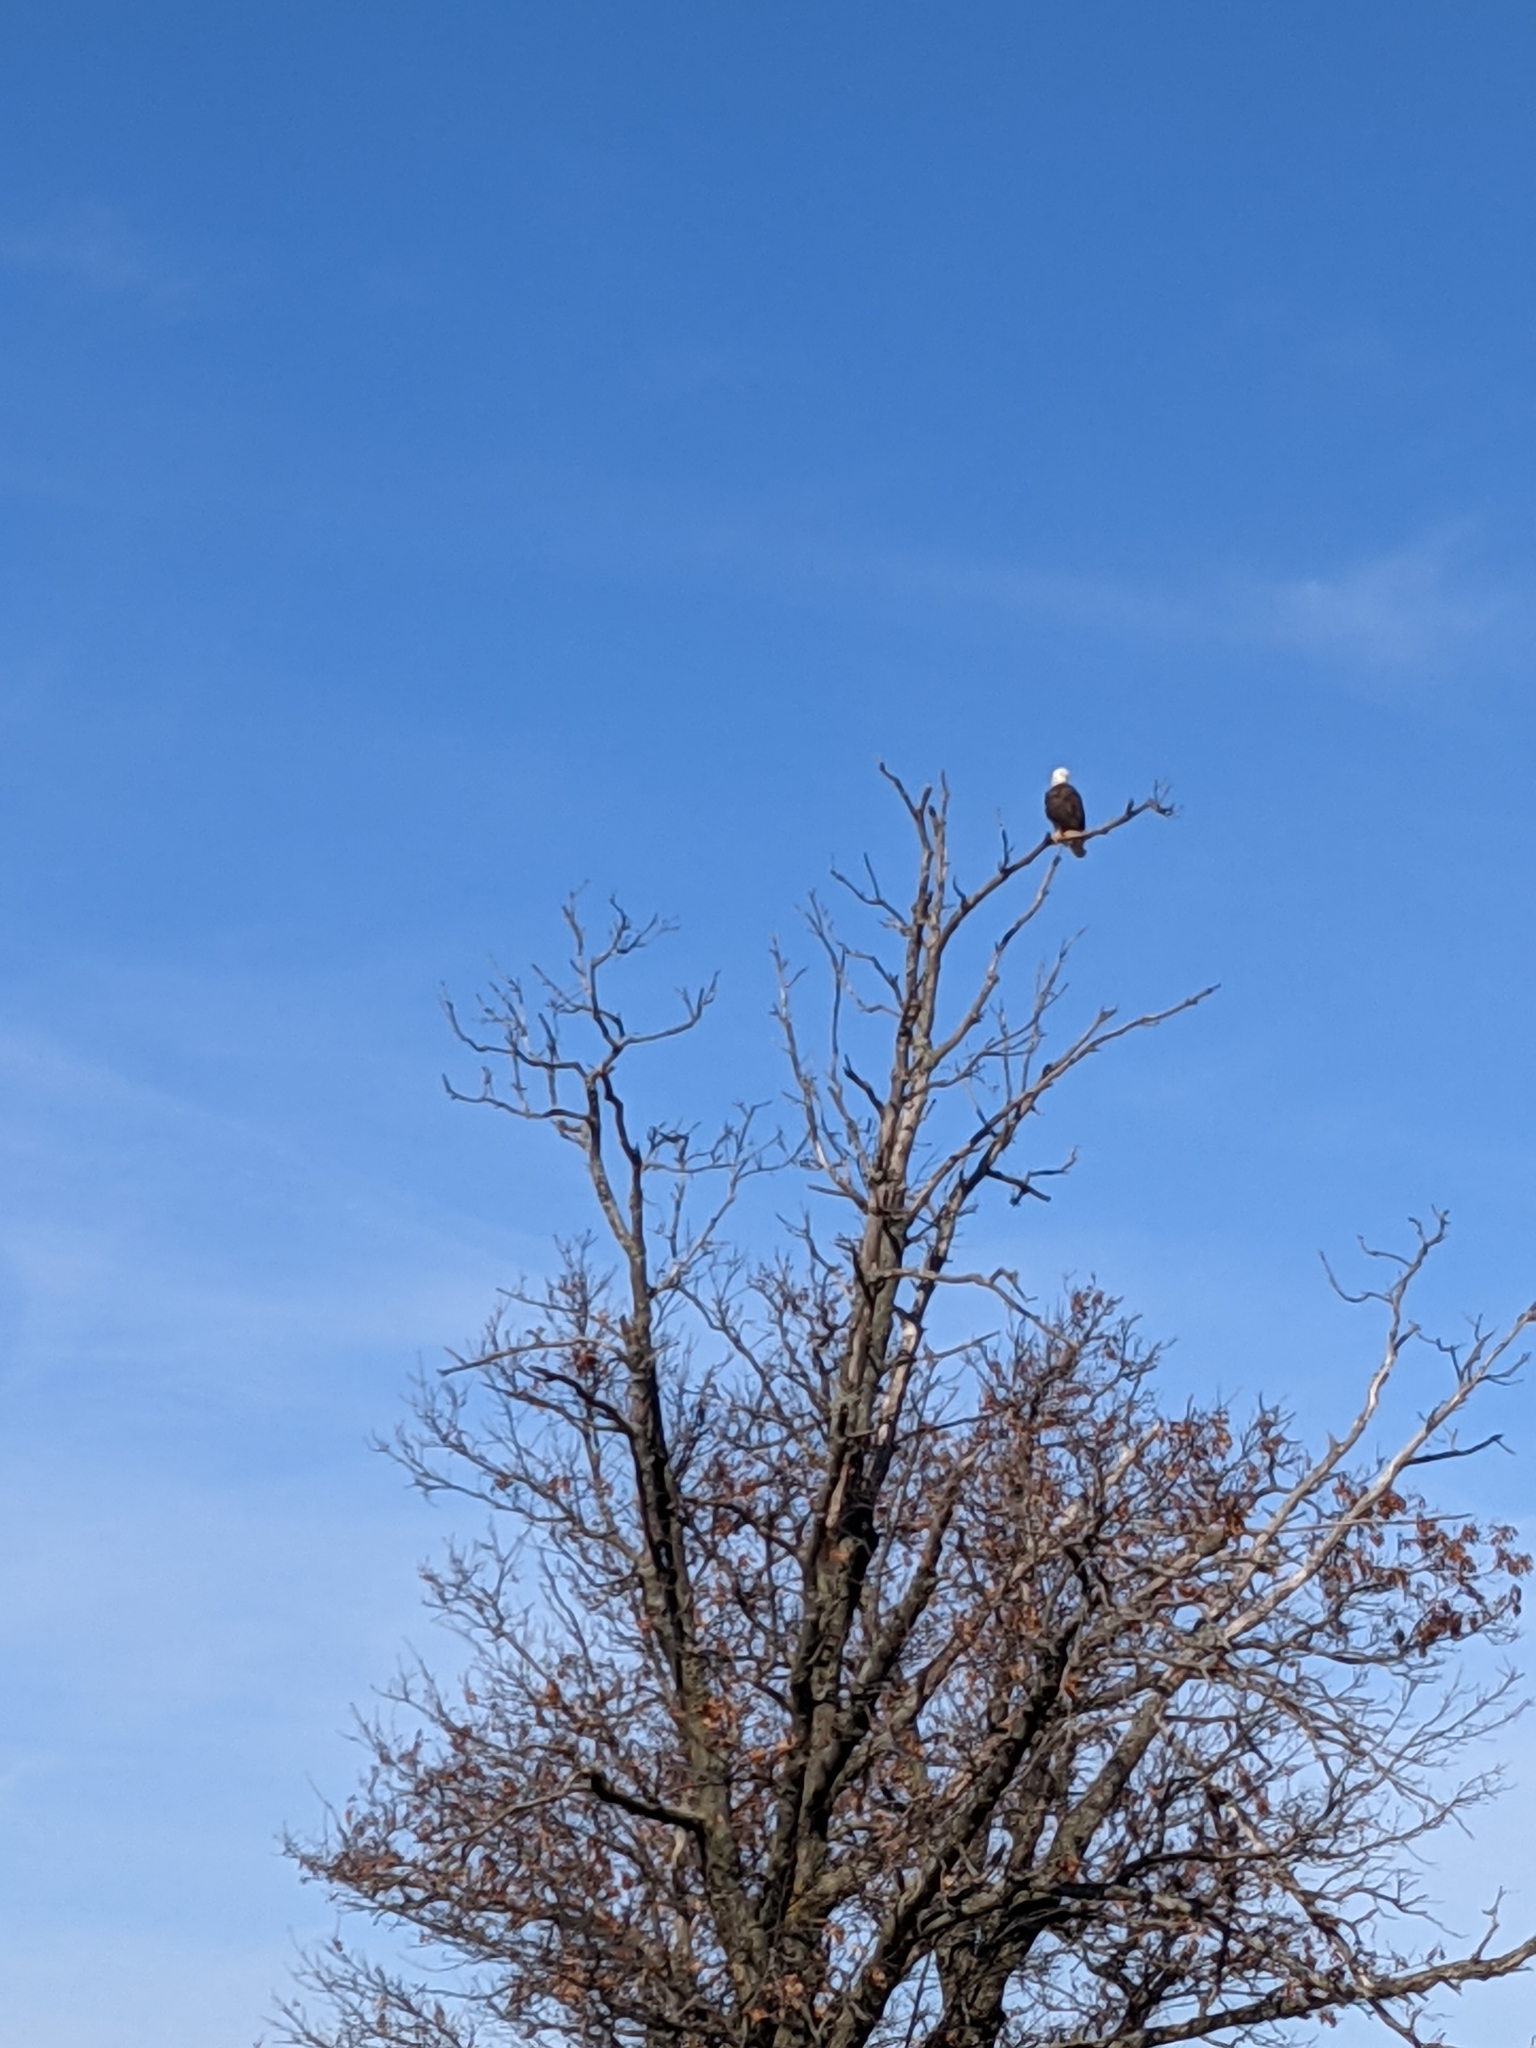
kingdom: Animalia
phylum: Chordata
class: Aves
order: Accipitriformes
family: Accipitridae
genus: Haliaeetus
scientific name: Haliaeetus leucocephalus
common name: Bald eagle
